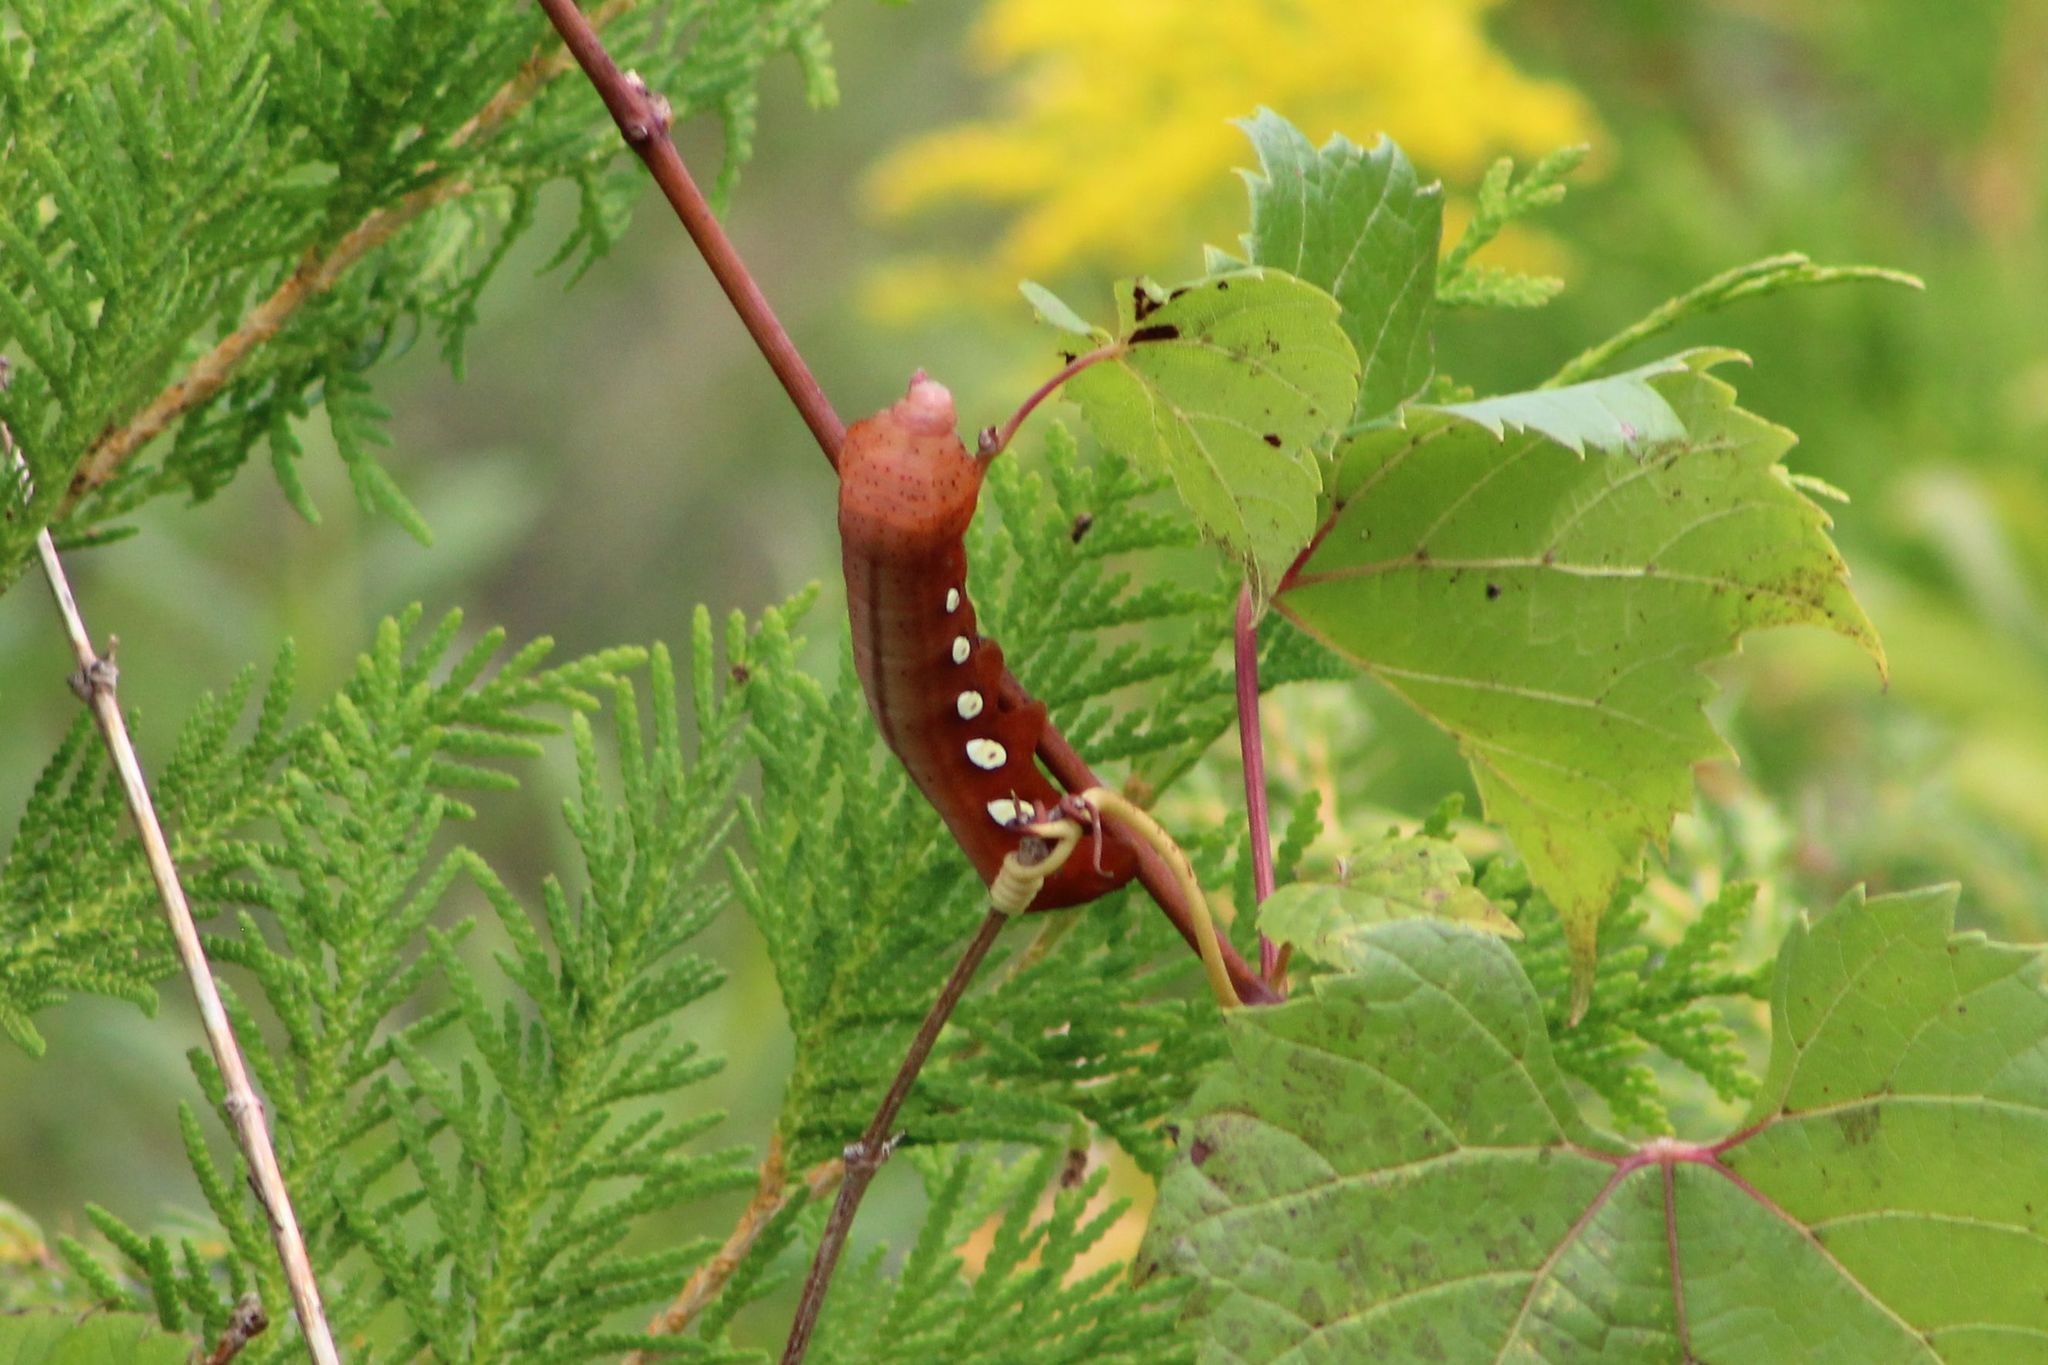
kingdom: Animalia
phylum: Arthropoda
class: Insecta
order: Lepidoptera
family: Sphingidae
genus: Eumorpha
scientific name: Eumorpha pandorus
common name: Pandora sphinx
